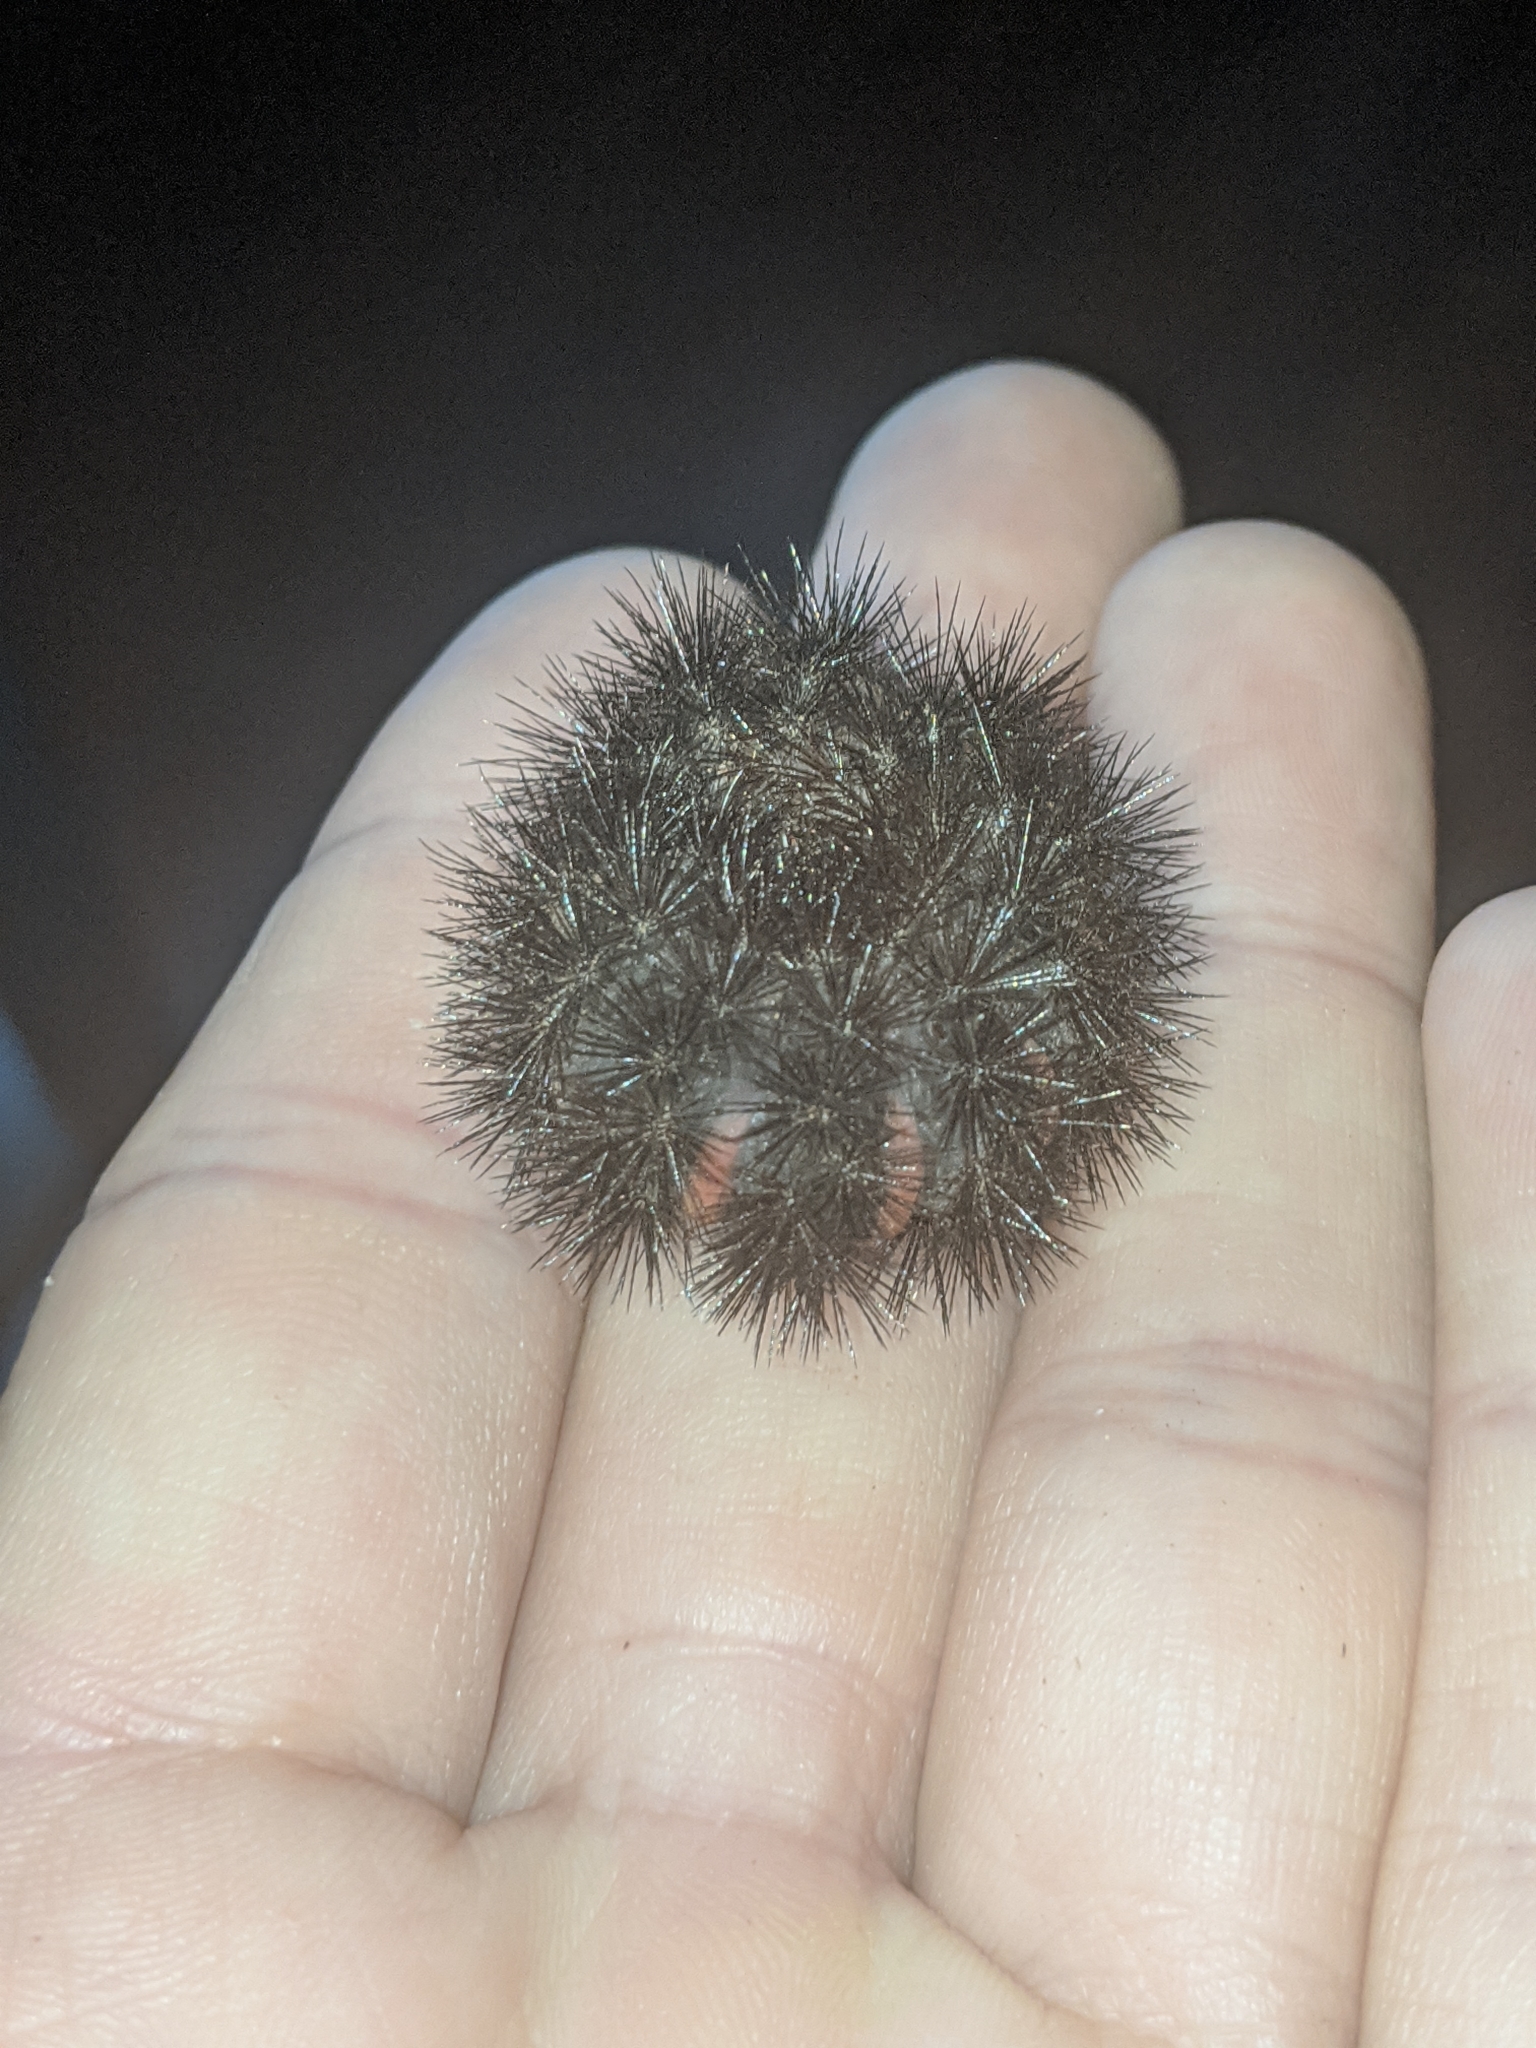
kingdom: Animalia
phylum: Arthropoda
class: Insecta
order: Lepidoptera
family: Erebidae
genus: Hypercompe
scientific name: Hypercompe scribonia
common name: Giant leopard moth
